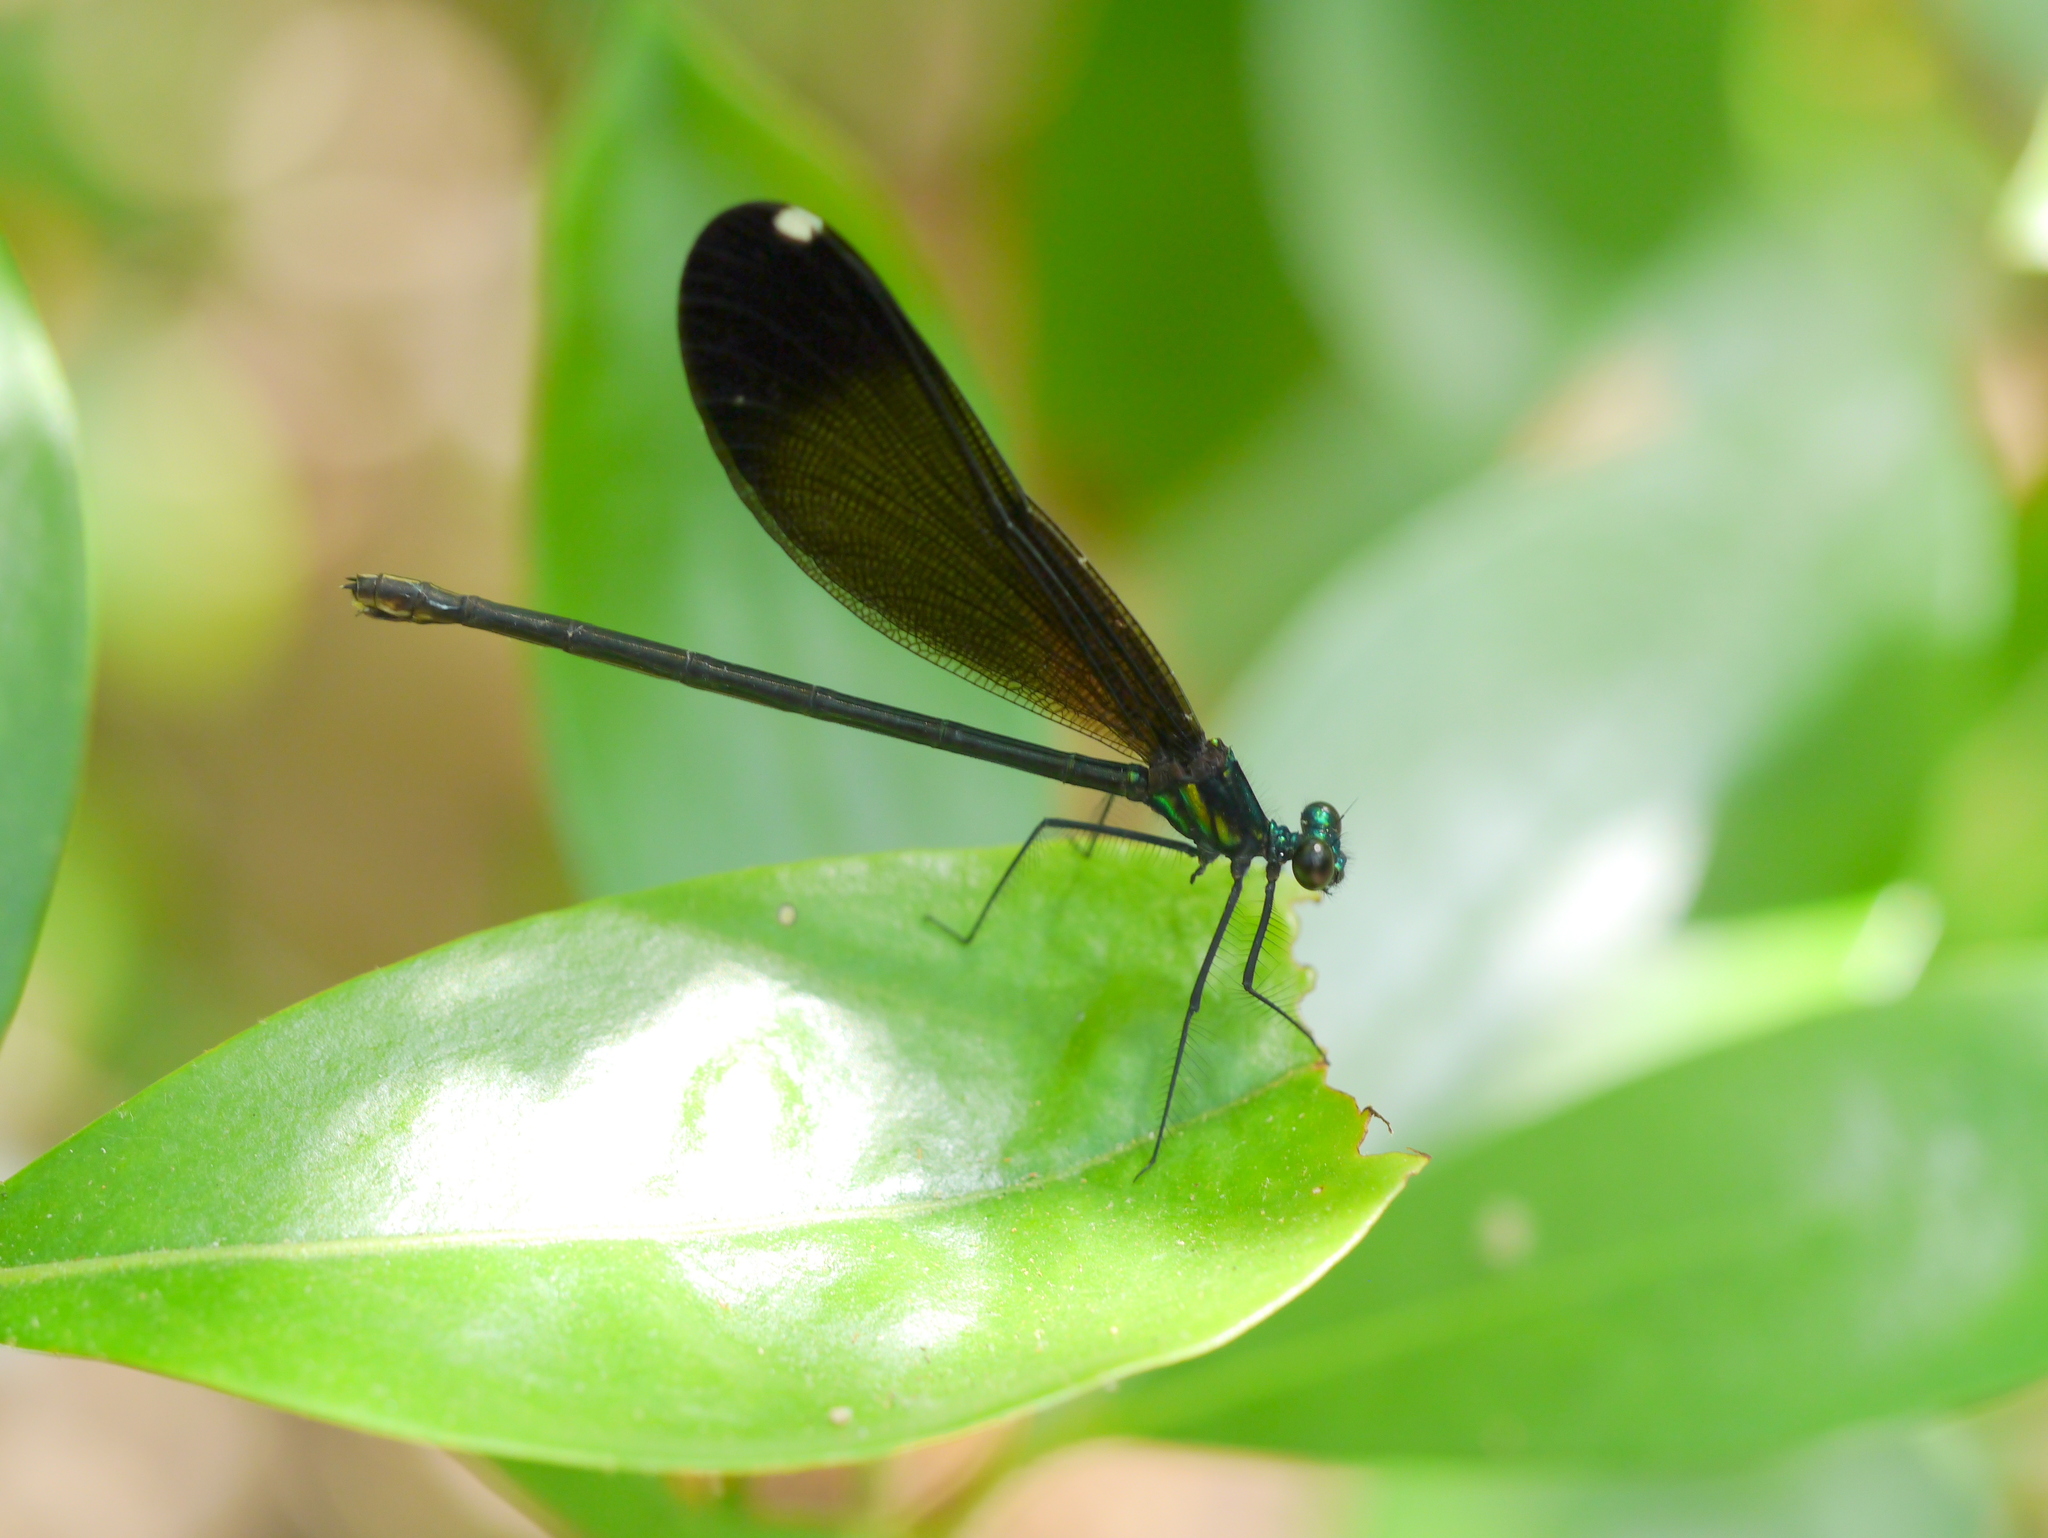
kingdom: Animalia
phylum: Arthropoda
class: Insecta
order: Odonata
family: Calopterygidae
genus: Calopteryx
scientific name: Calopteryx maculata
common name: Ebony jewelwing
